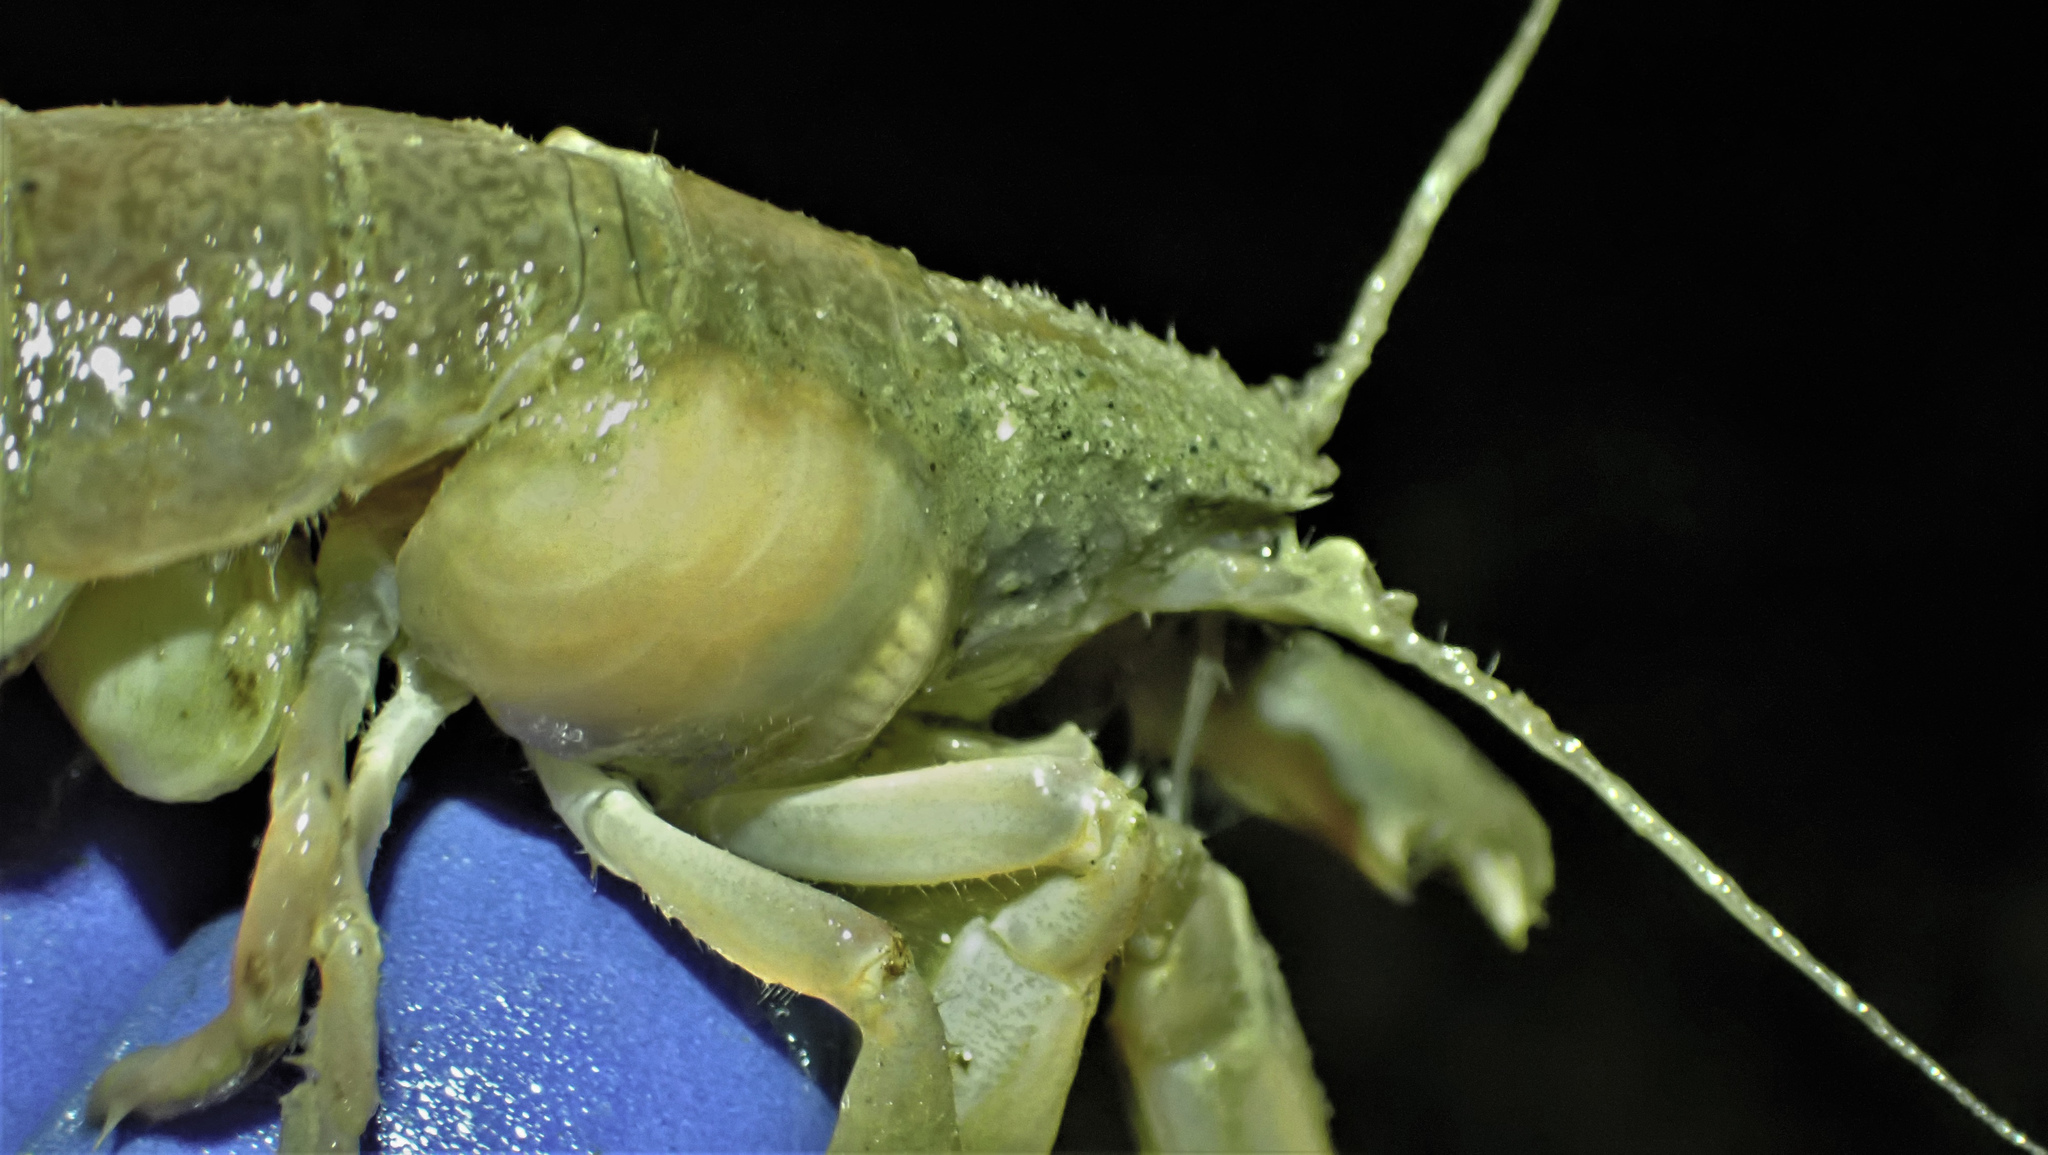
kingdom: Animalia
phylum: Arthropoda
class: Malacostraca
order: Decapoda
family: Upogebiidae
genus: Upogebia
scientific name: Upogebia pugettensis
